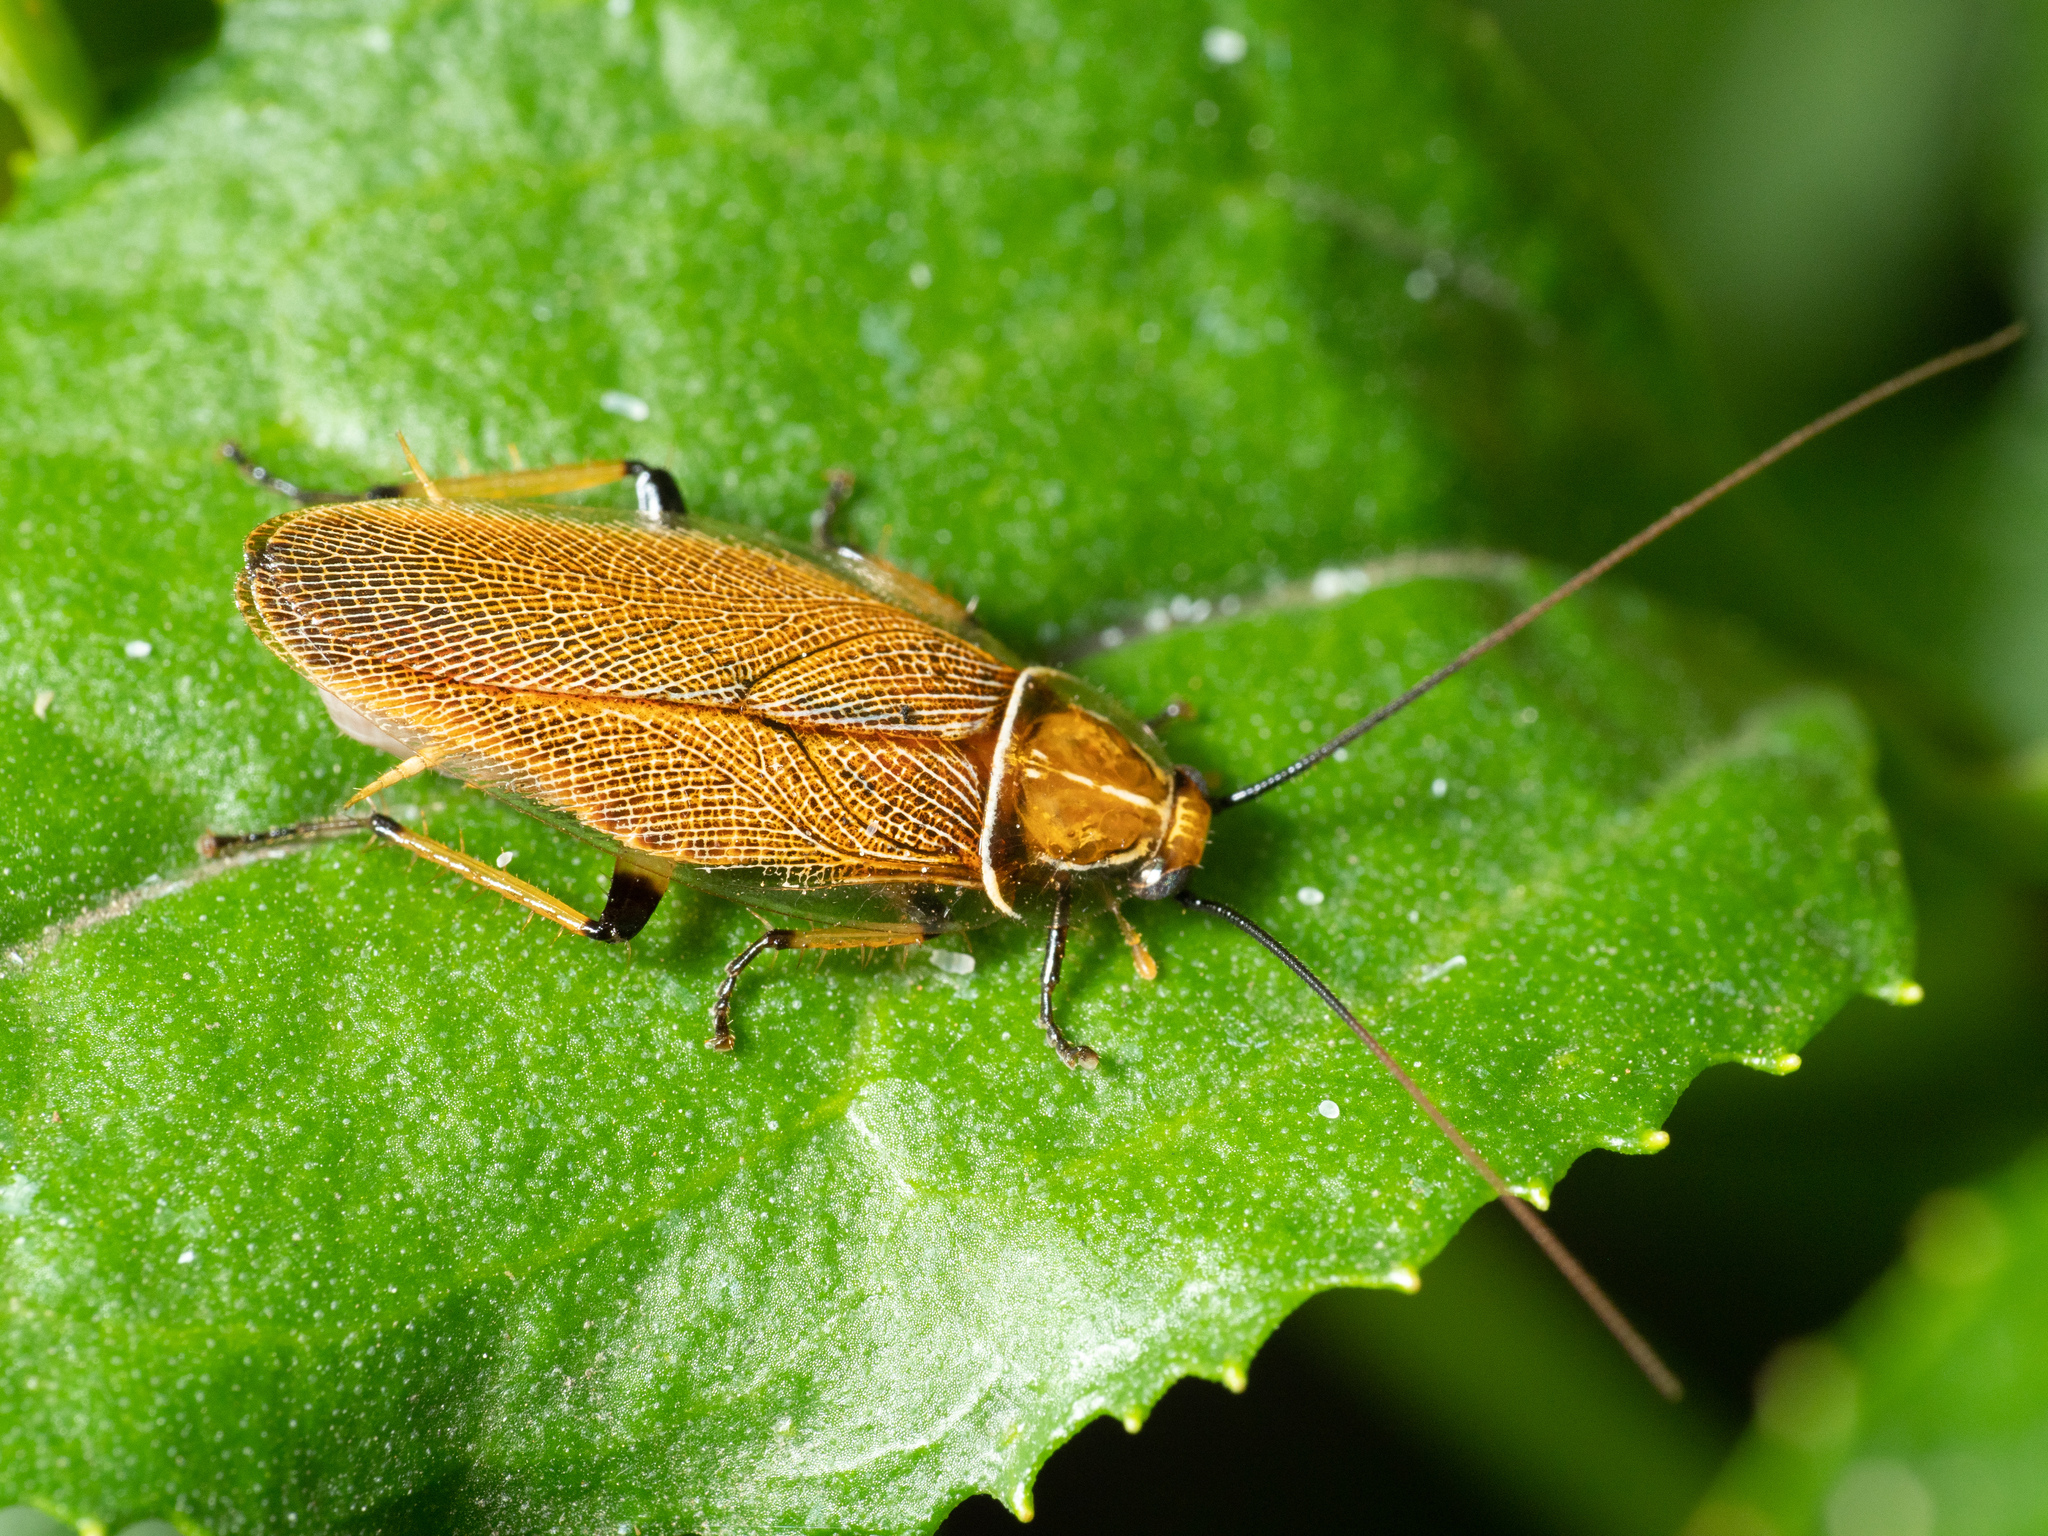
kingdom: Animalia
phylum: Arthropoda
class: Insecta
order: Blattodea
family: Ectobiidae
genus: Balta
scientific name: Balta bicolor
